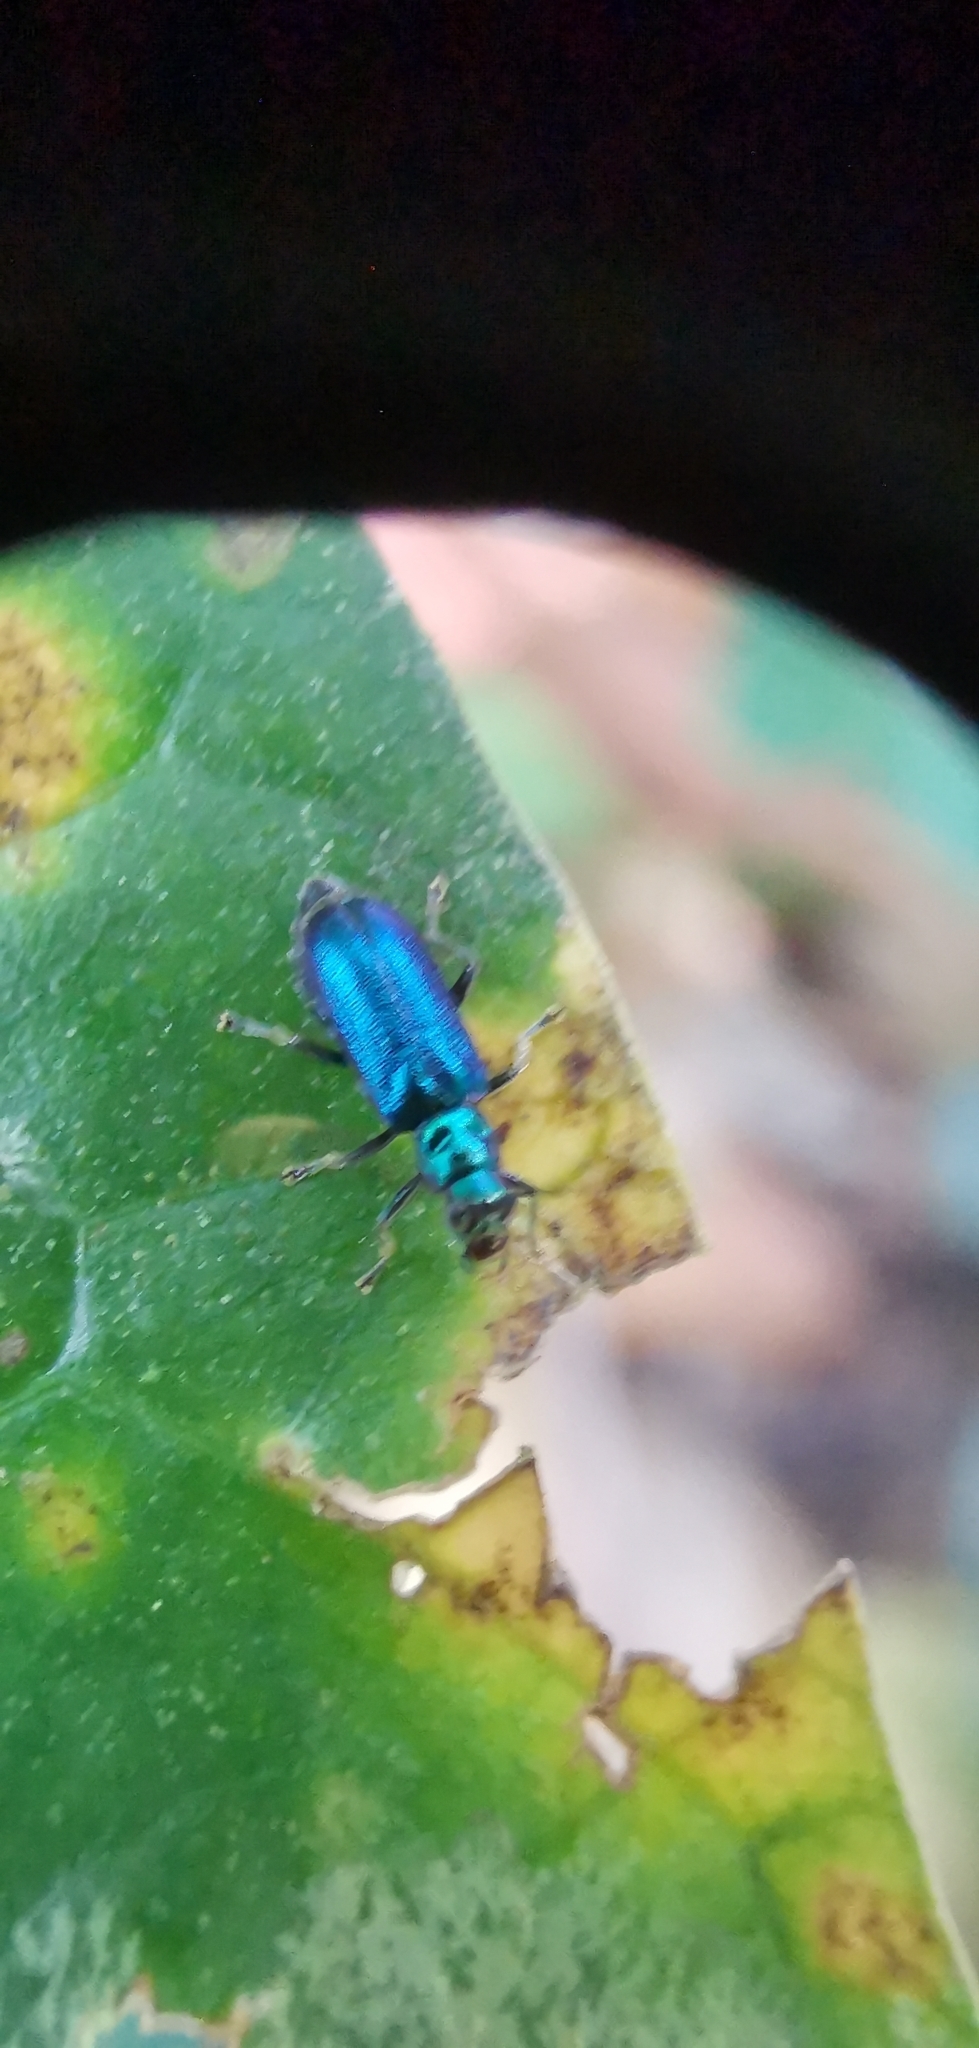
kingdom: Animalia
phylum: Arthropoda
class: Insecta
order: Coleoptera
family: Chrysomelidae
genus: Hoplosaenidea
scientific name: Hoplosaenidea
